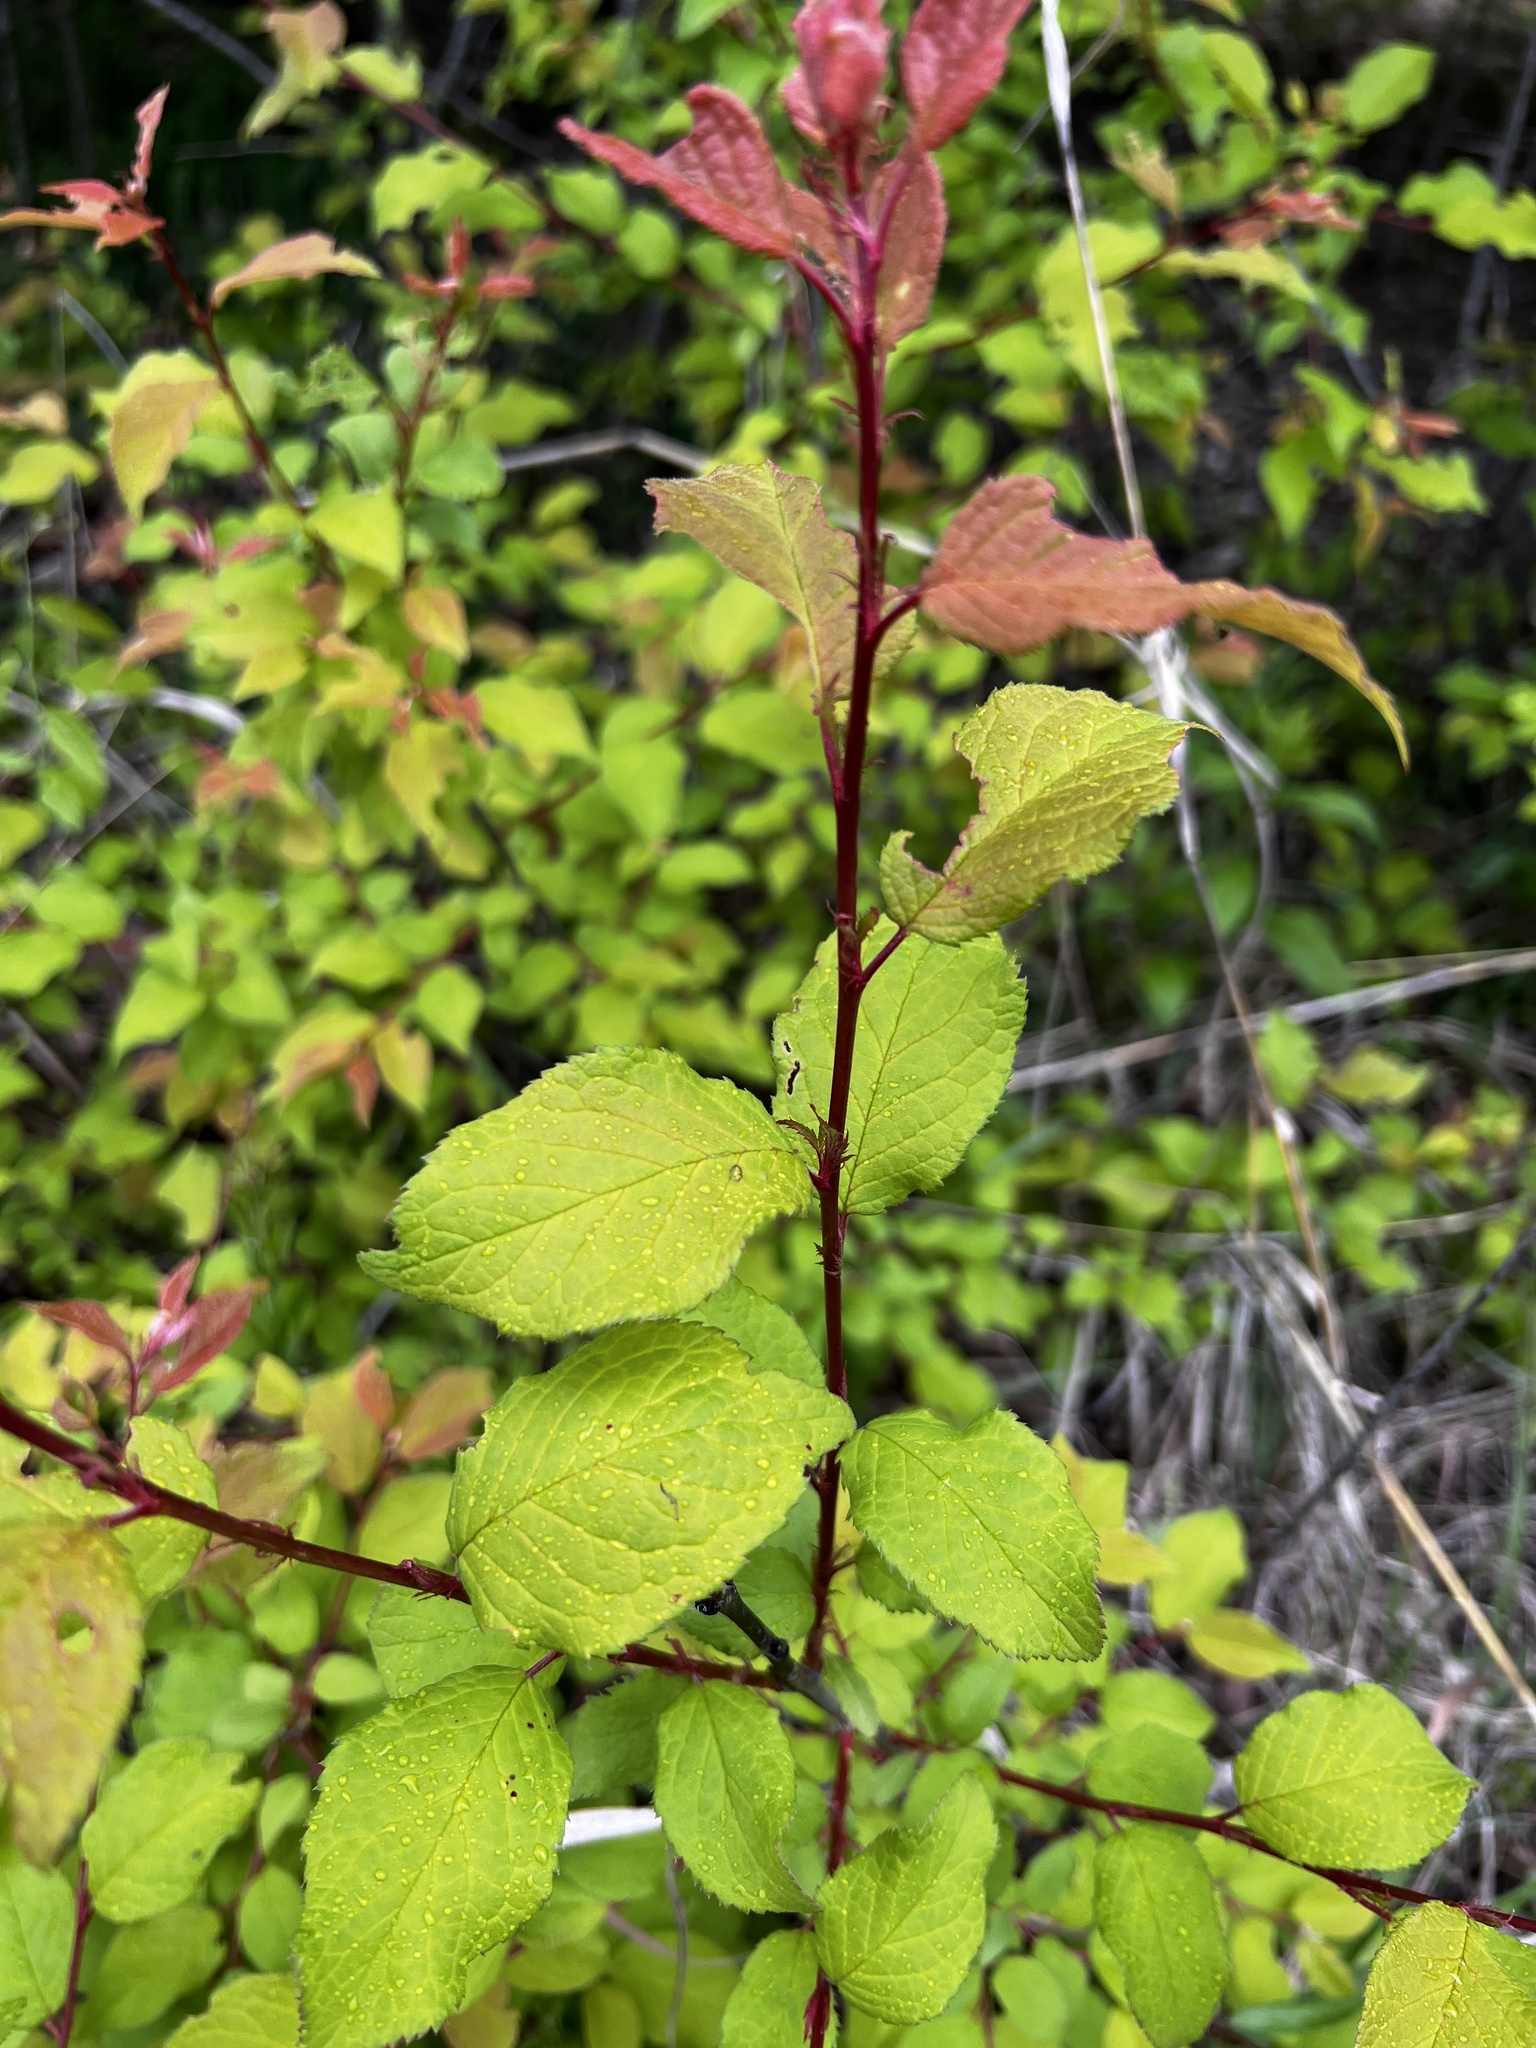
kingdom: Plantae
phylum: Tracheophyta
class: Magnoliopsida
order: Rosales
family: Rosaceae
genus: Prunus
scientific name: Prunus mexicana
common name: Mexican plum
